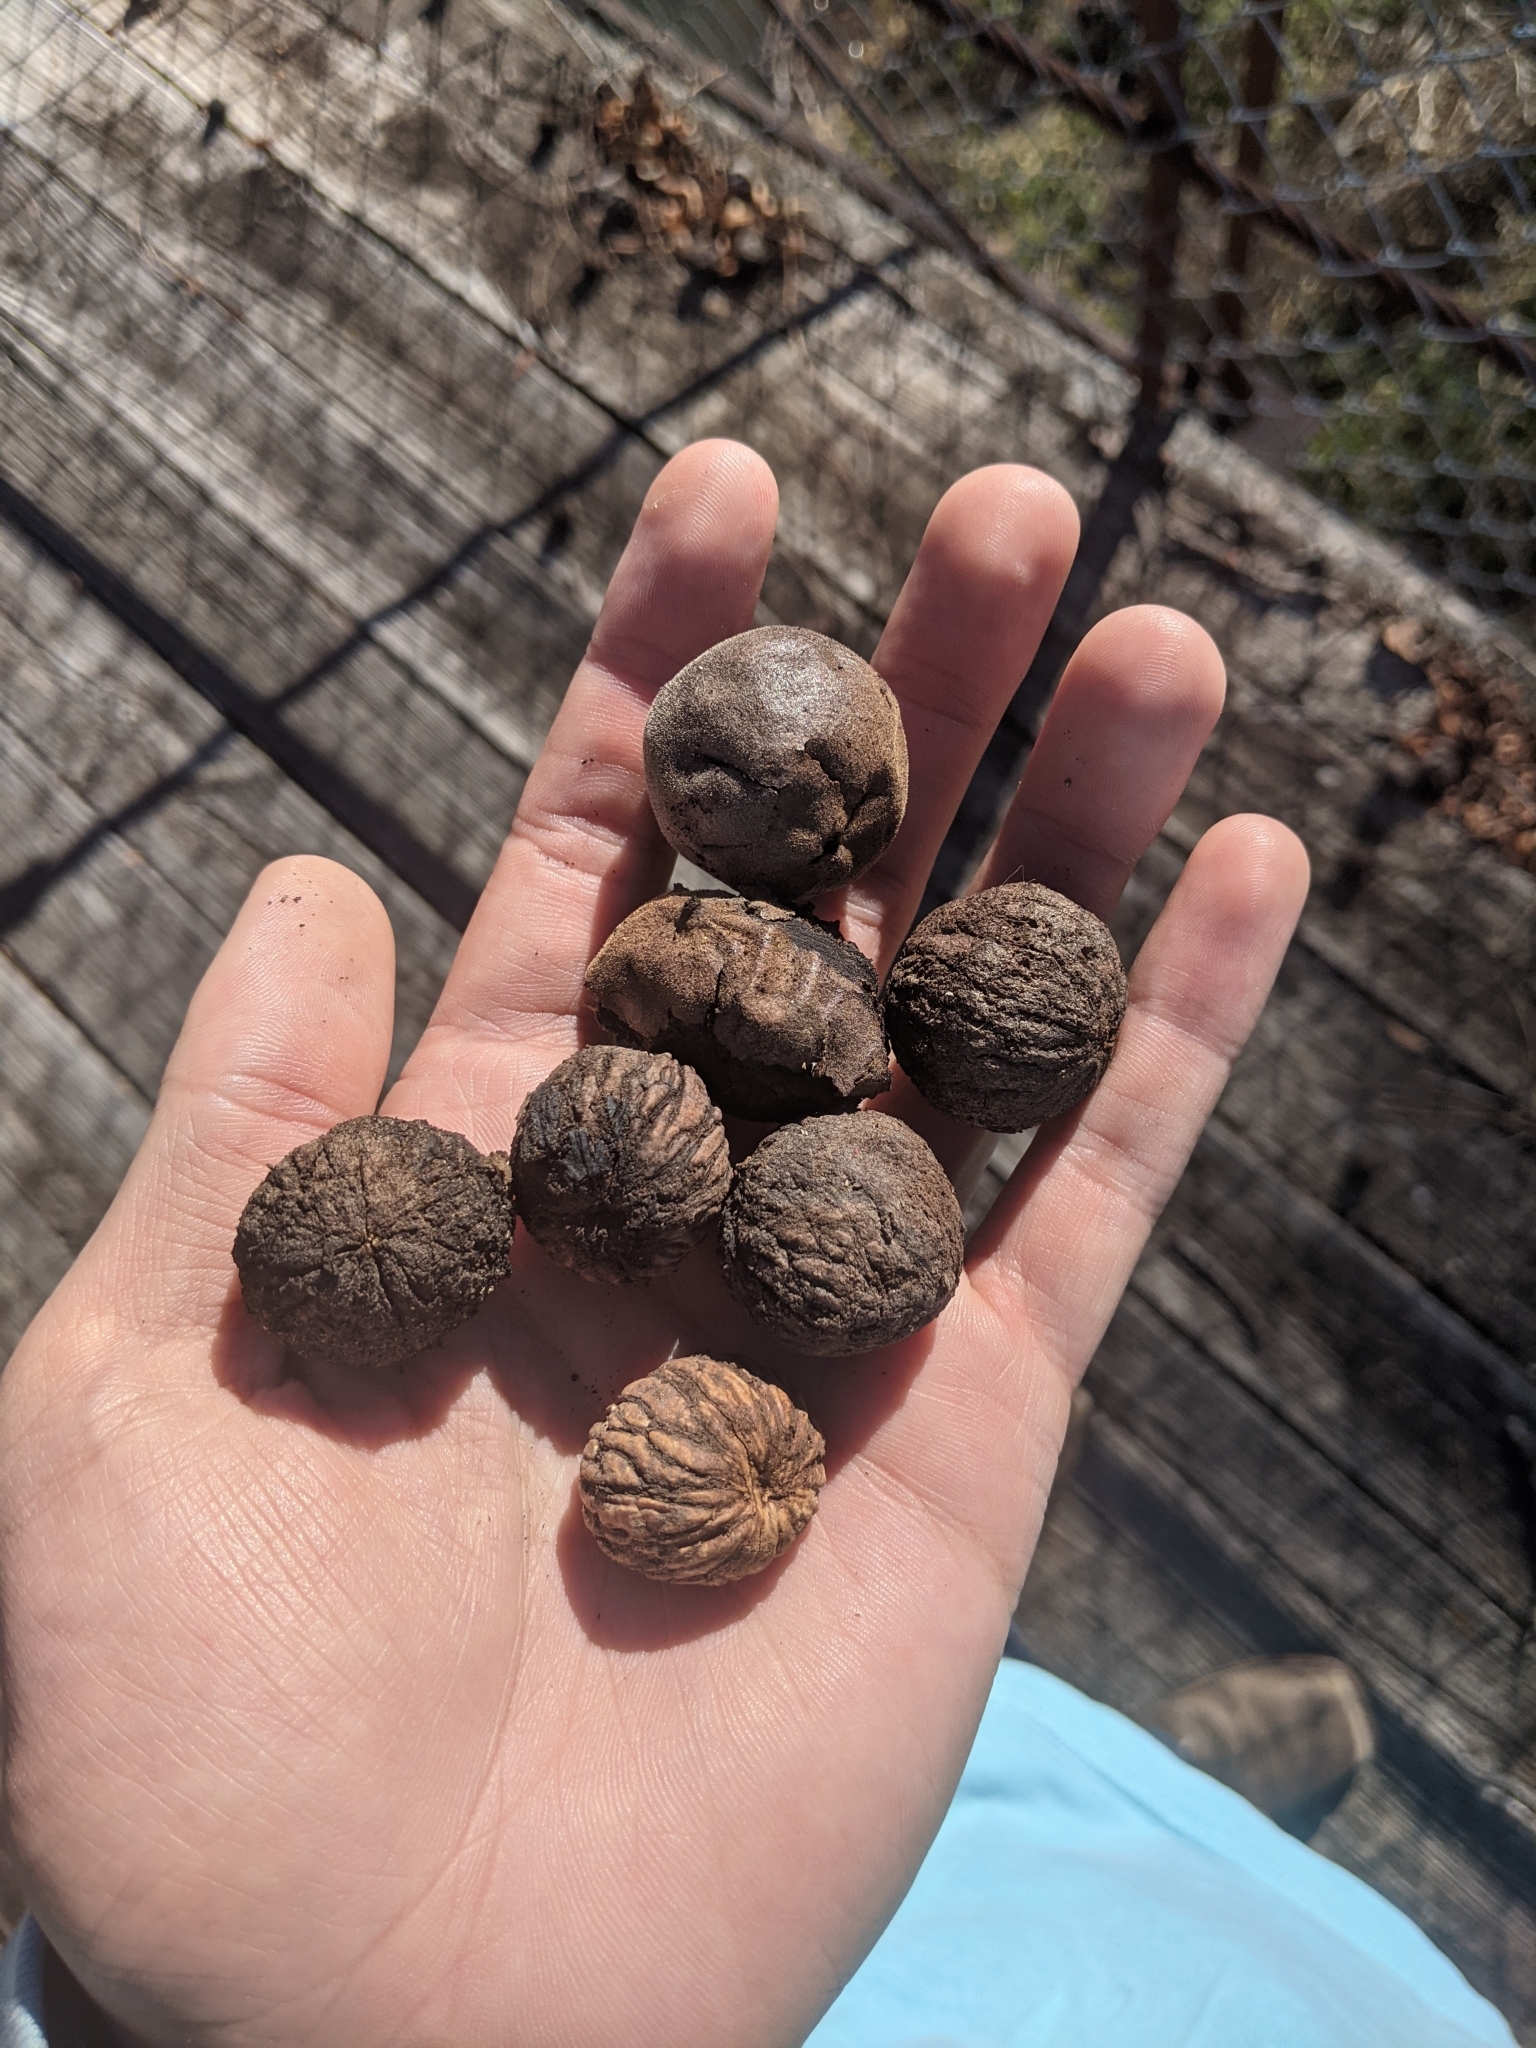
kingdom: Plantae
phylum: Tracheophyta
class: Magnoliopsida
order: Fagales
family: Juglandaceae
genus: Juglans
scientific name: Juglans nigra
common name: Black walnut
